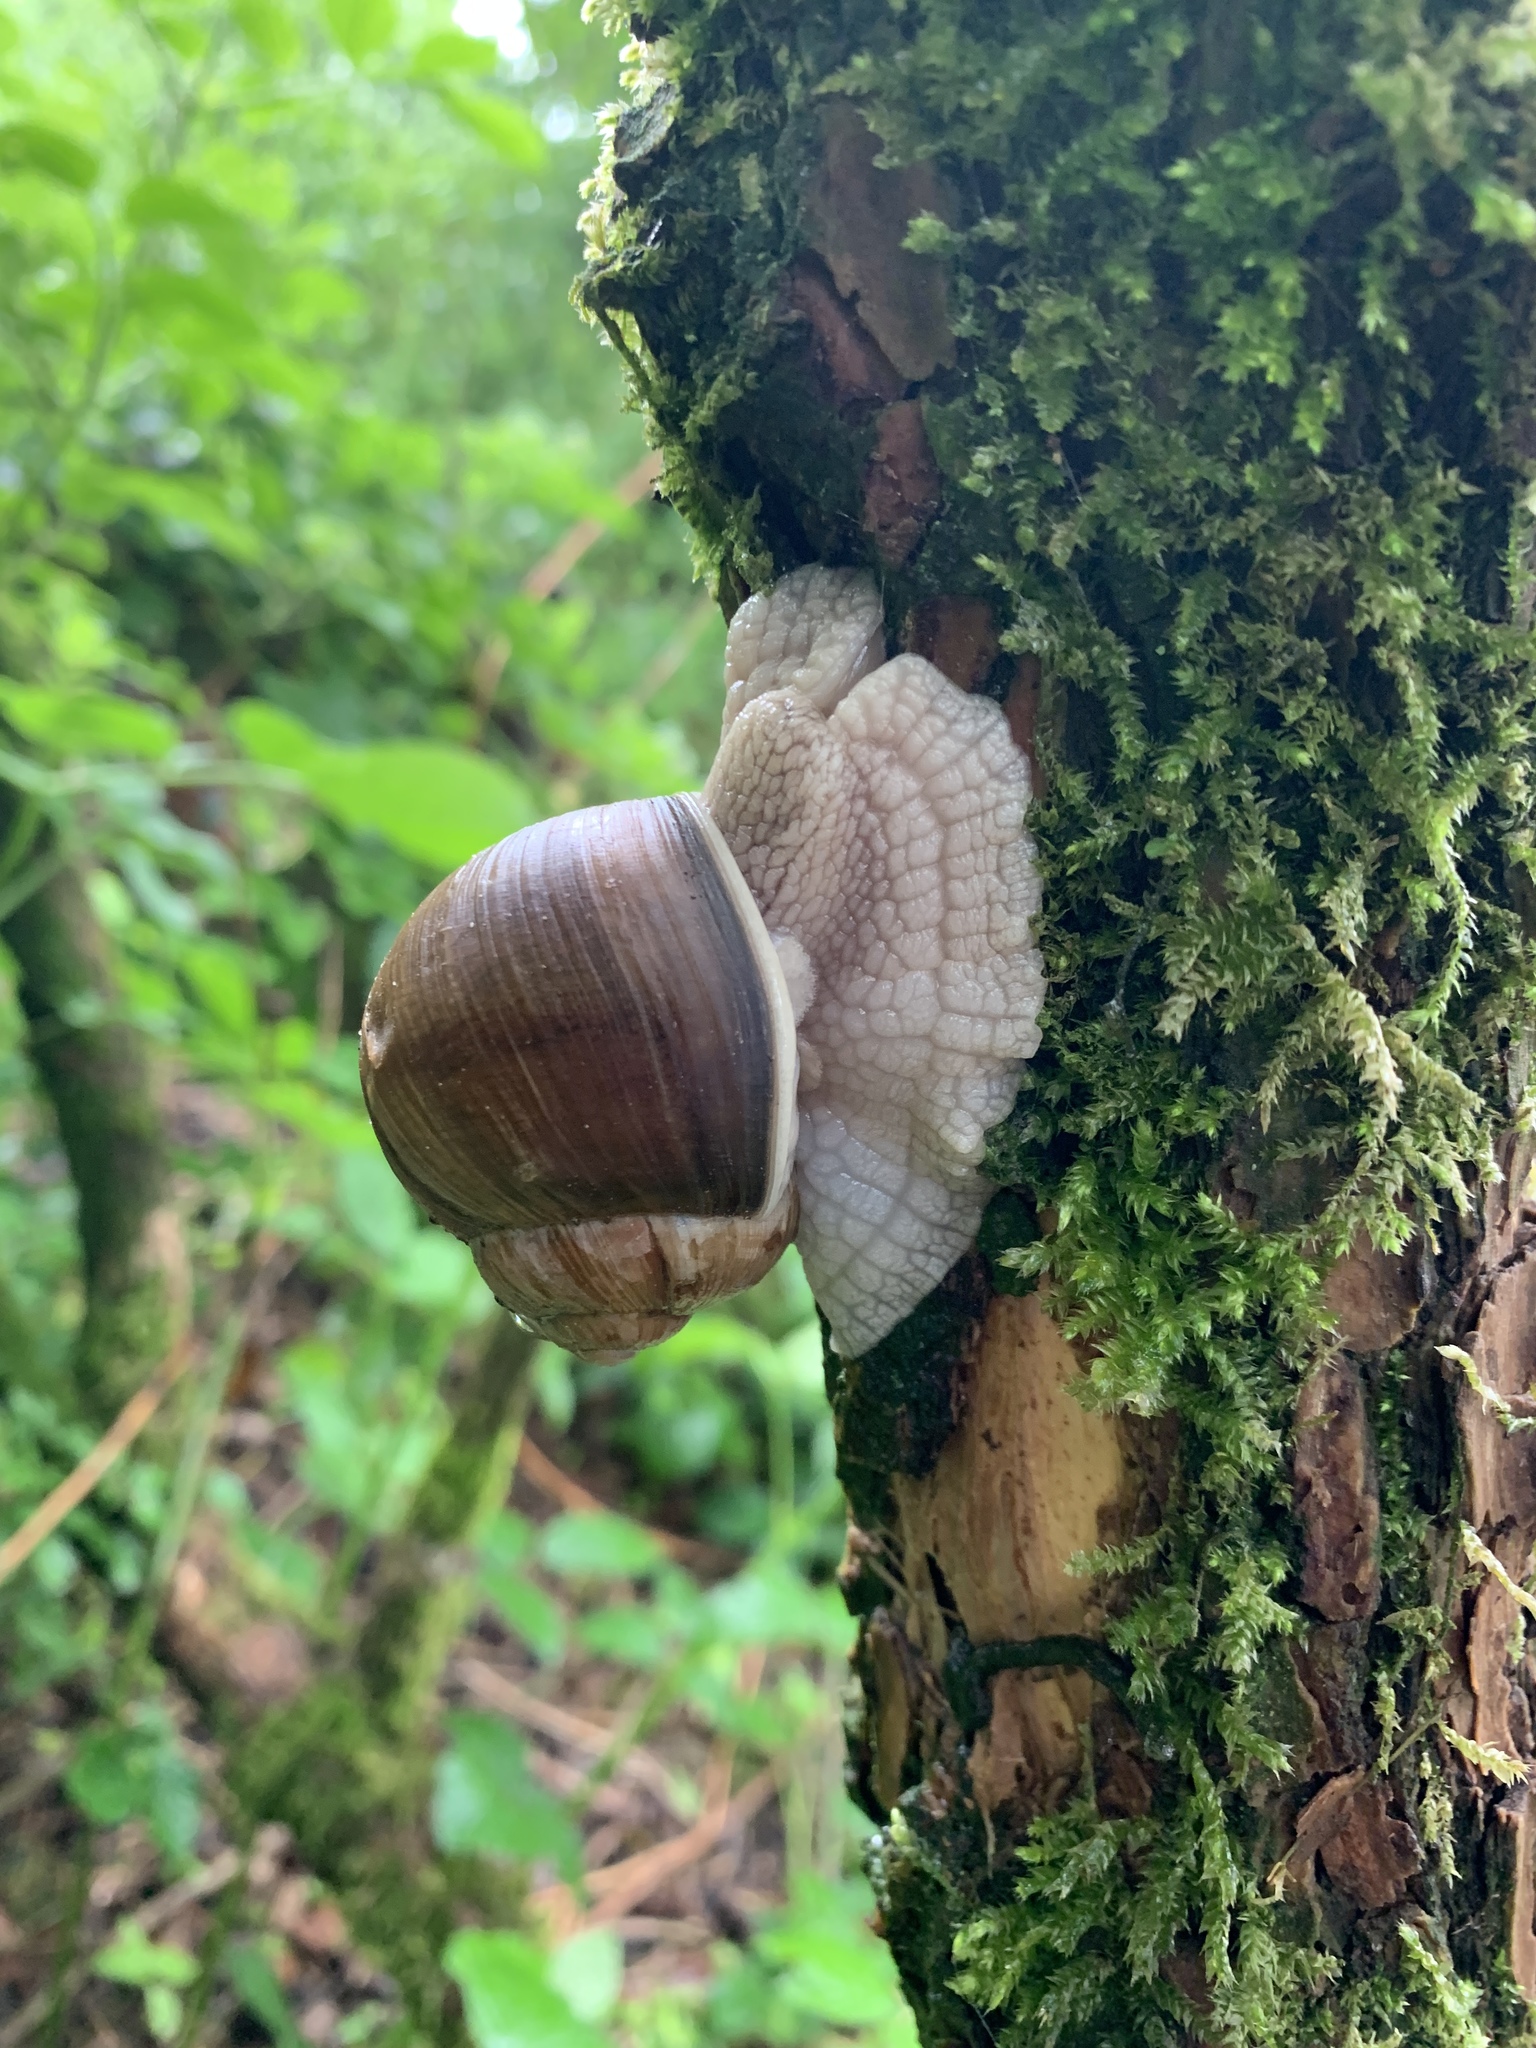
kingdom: Animalia
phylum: Mollusca
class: Gastropoda
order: Stylommatophora
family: Helicidae
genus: Helix
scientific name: Helix pomatia
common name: Roman snail
